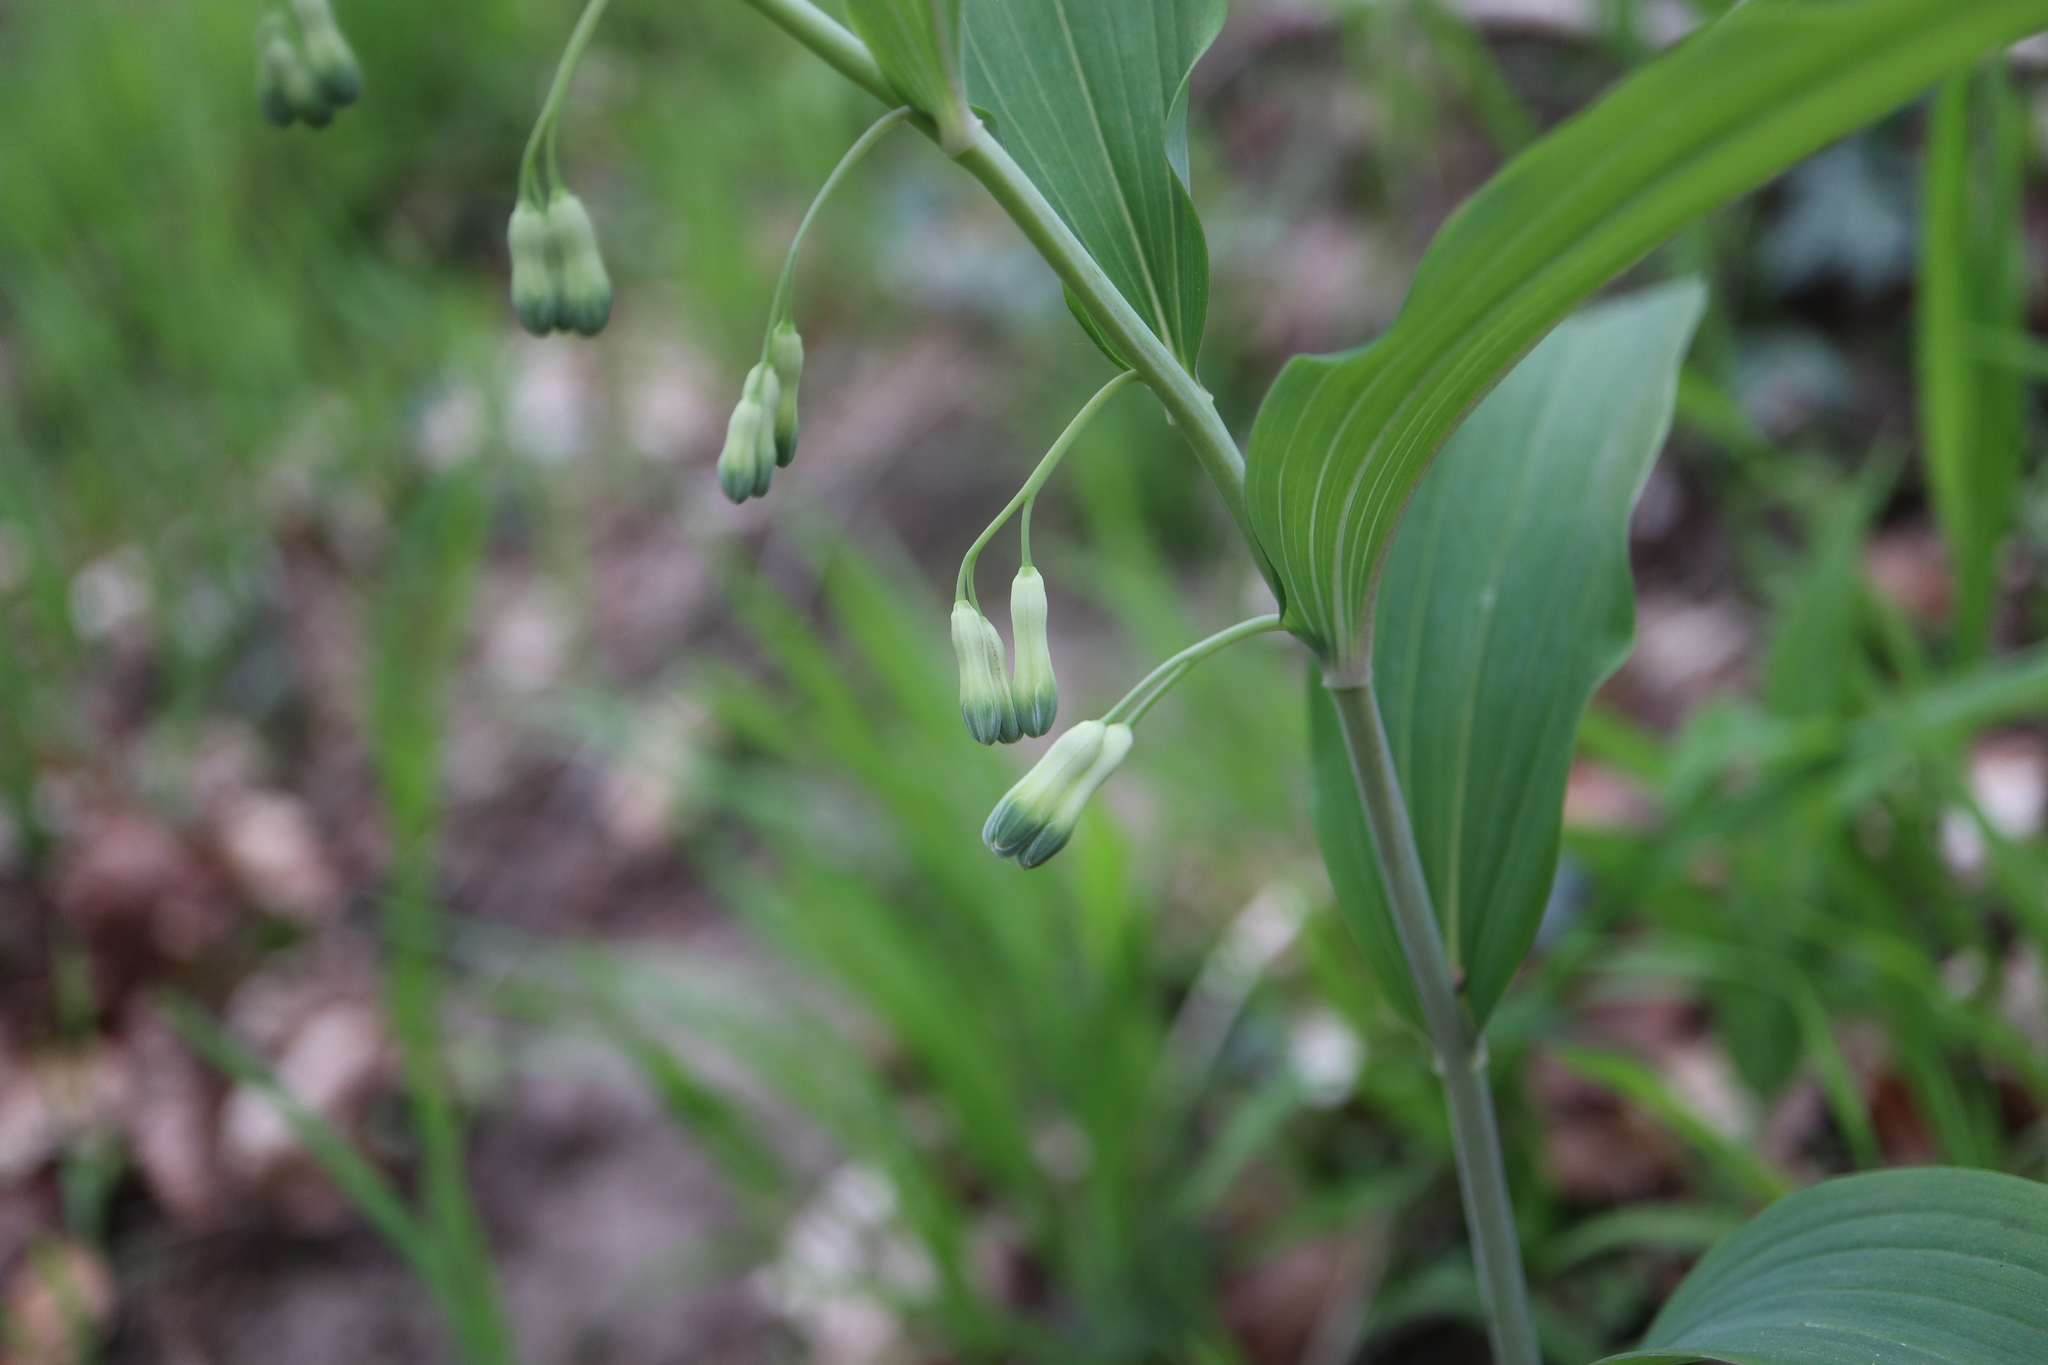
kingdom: Plantae
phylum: Tracheophyta
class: Liliopsida
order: Asparagales
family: Asparagaceae
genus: Polygonatum
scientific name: Polygonatum multiflorum
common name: Solomon's-seal
